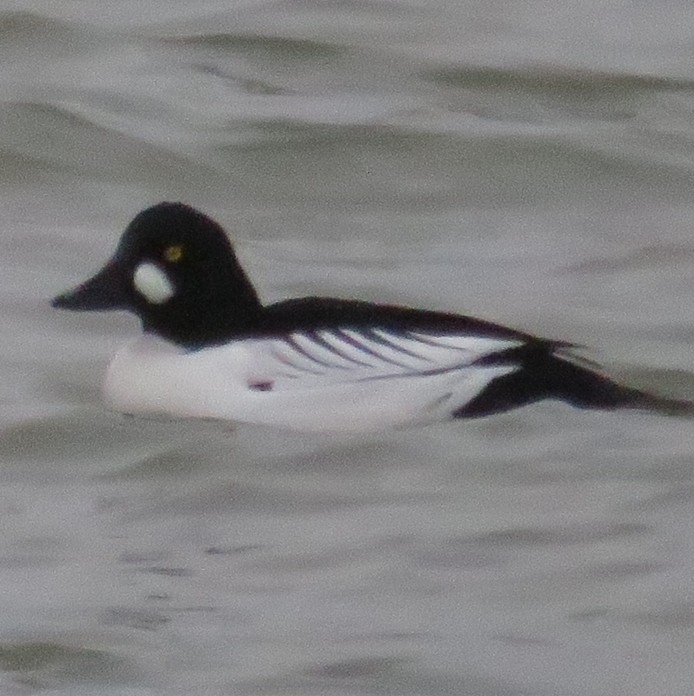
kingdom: Animalia
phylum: Chordata
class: Aves
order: Anseriformes
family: Anatidae
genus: Bucephala
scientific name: Bucephala clangula
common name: Common goldeneye
